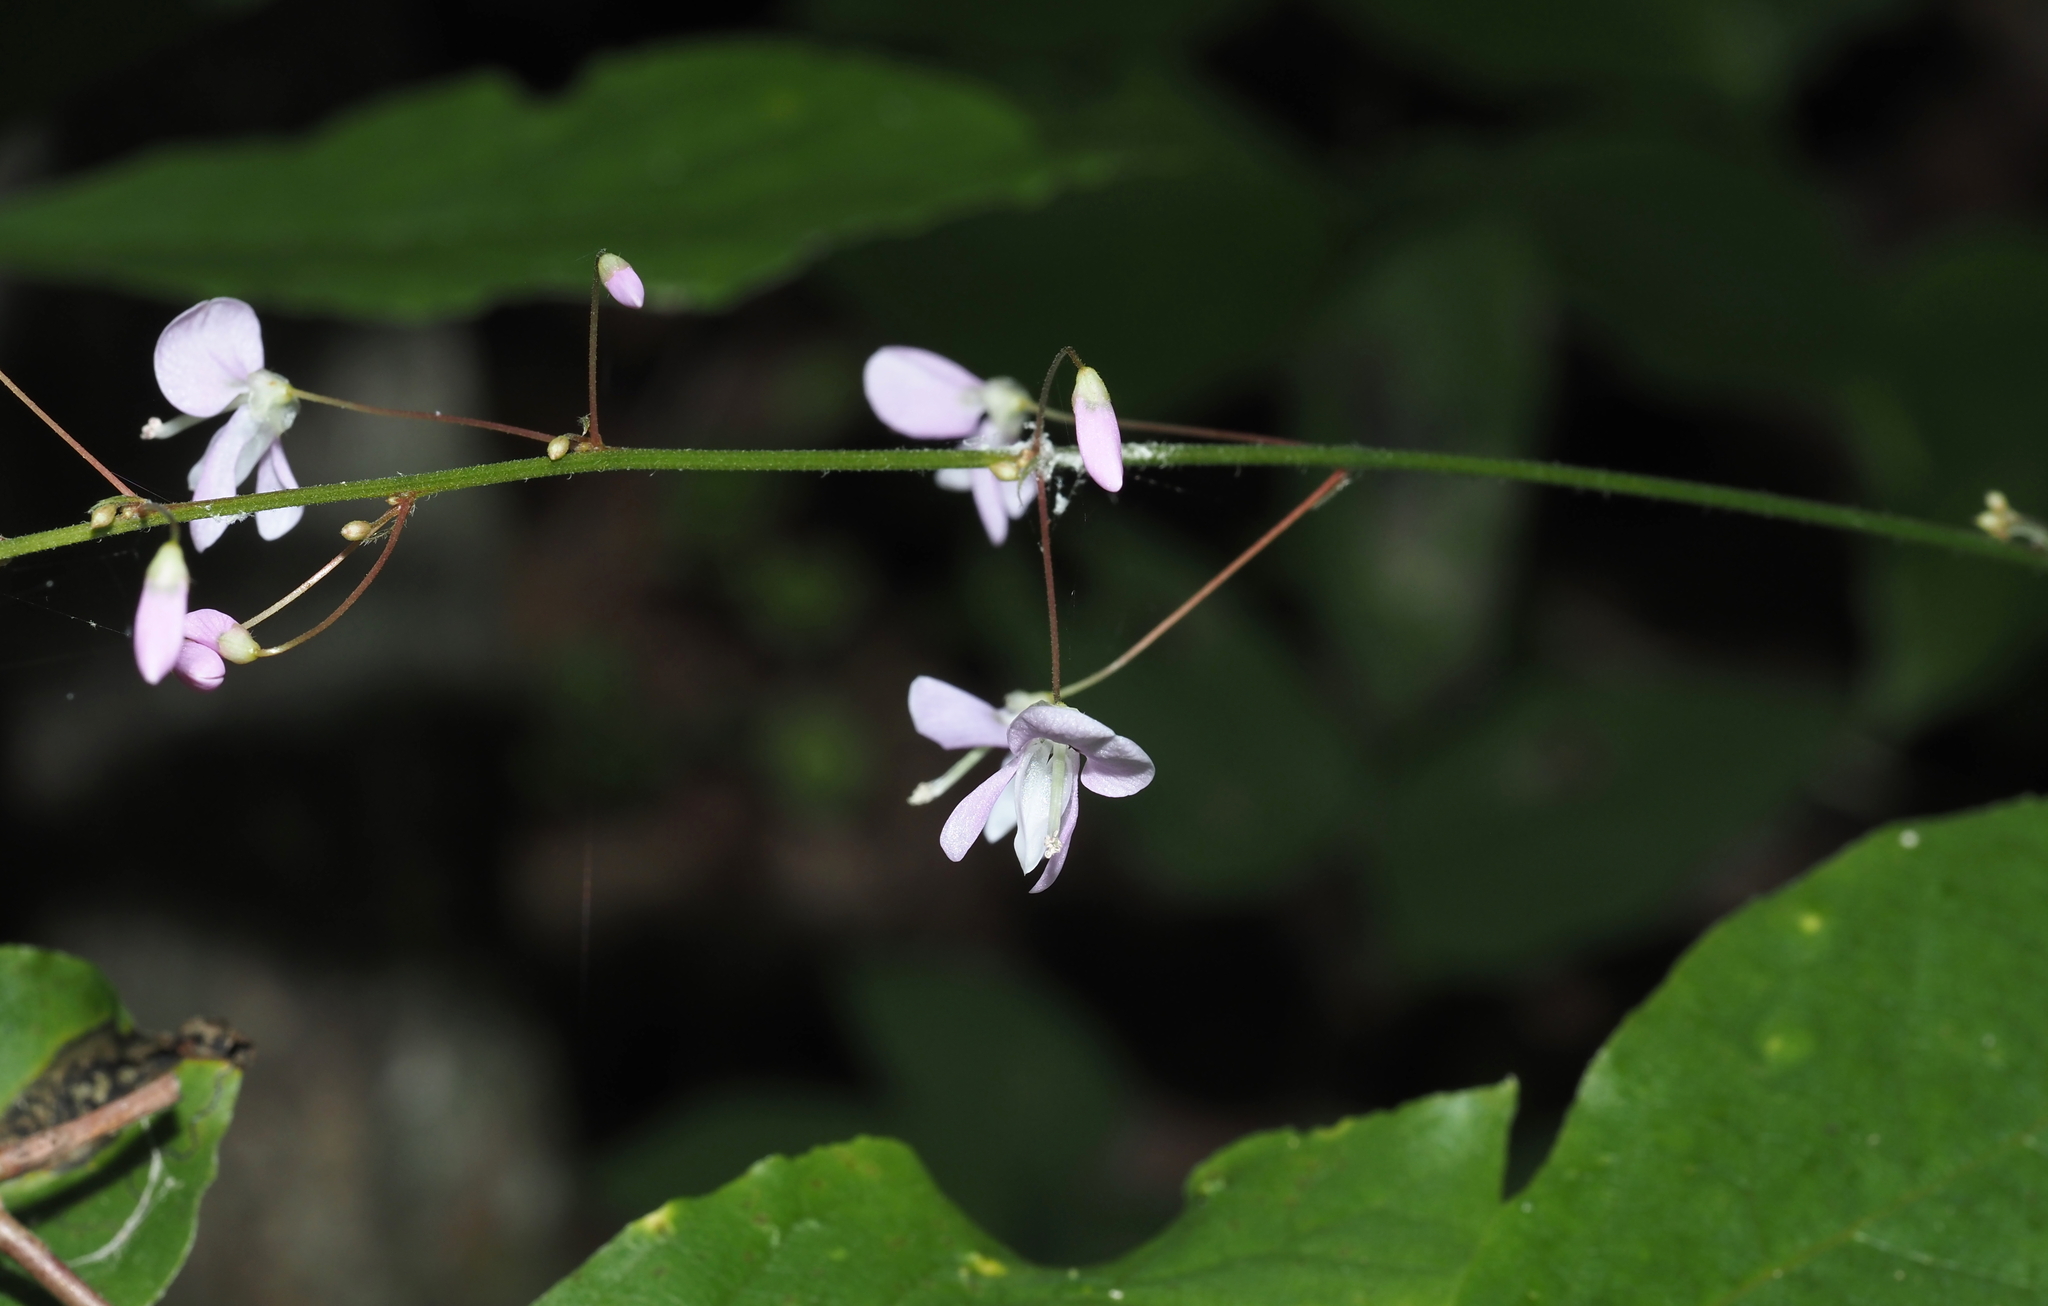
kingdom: Plantae
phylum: Tracheophyta
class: Magnoliopsida
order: Fabales
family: Fabaceae
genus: Hylodesmum
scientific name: Hylodesmum nudiflorum
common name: Bare-stemmed tick-trefoil
